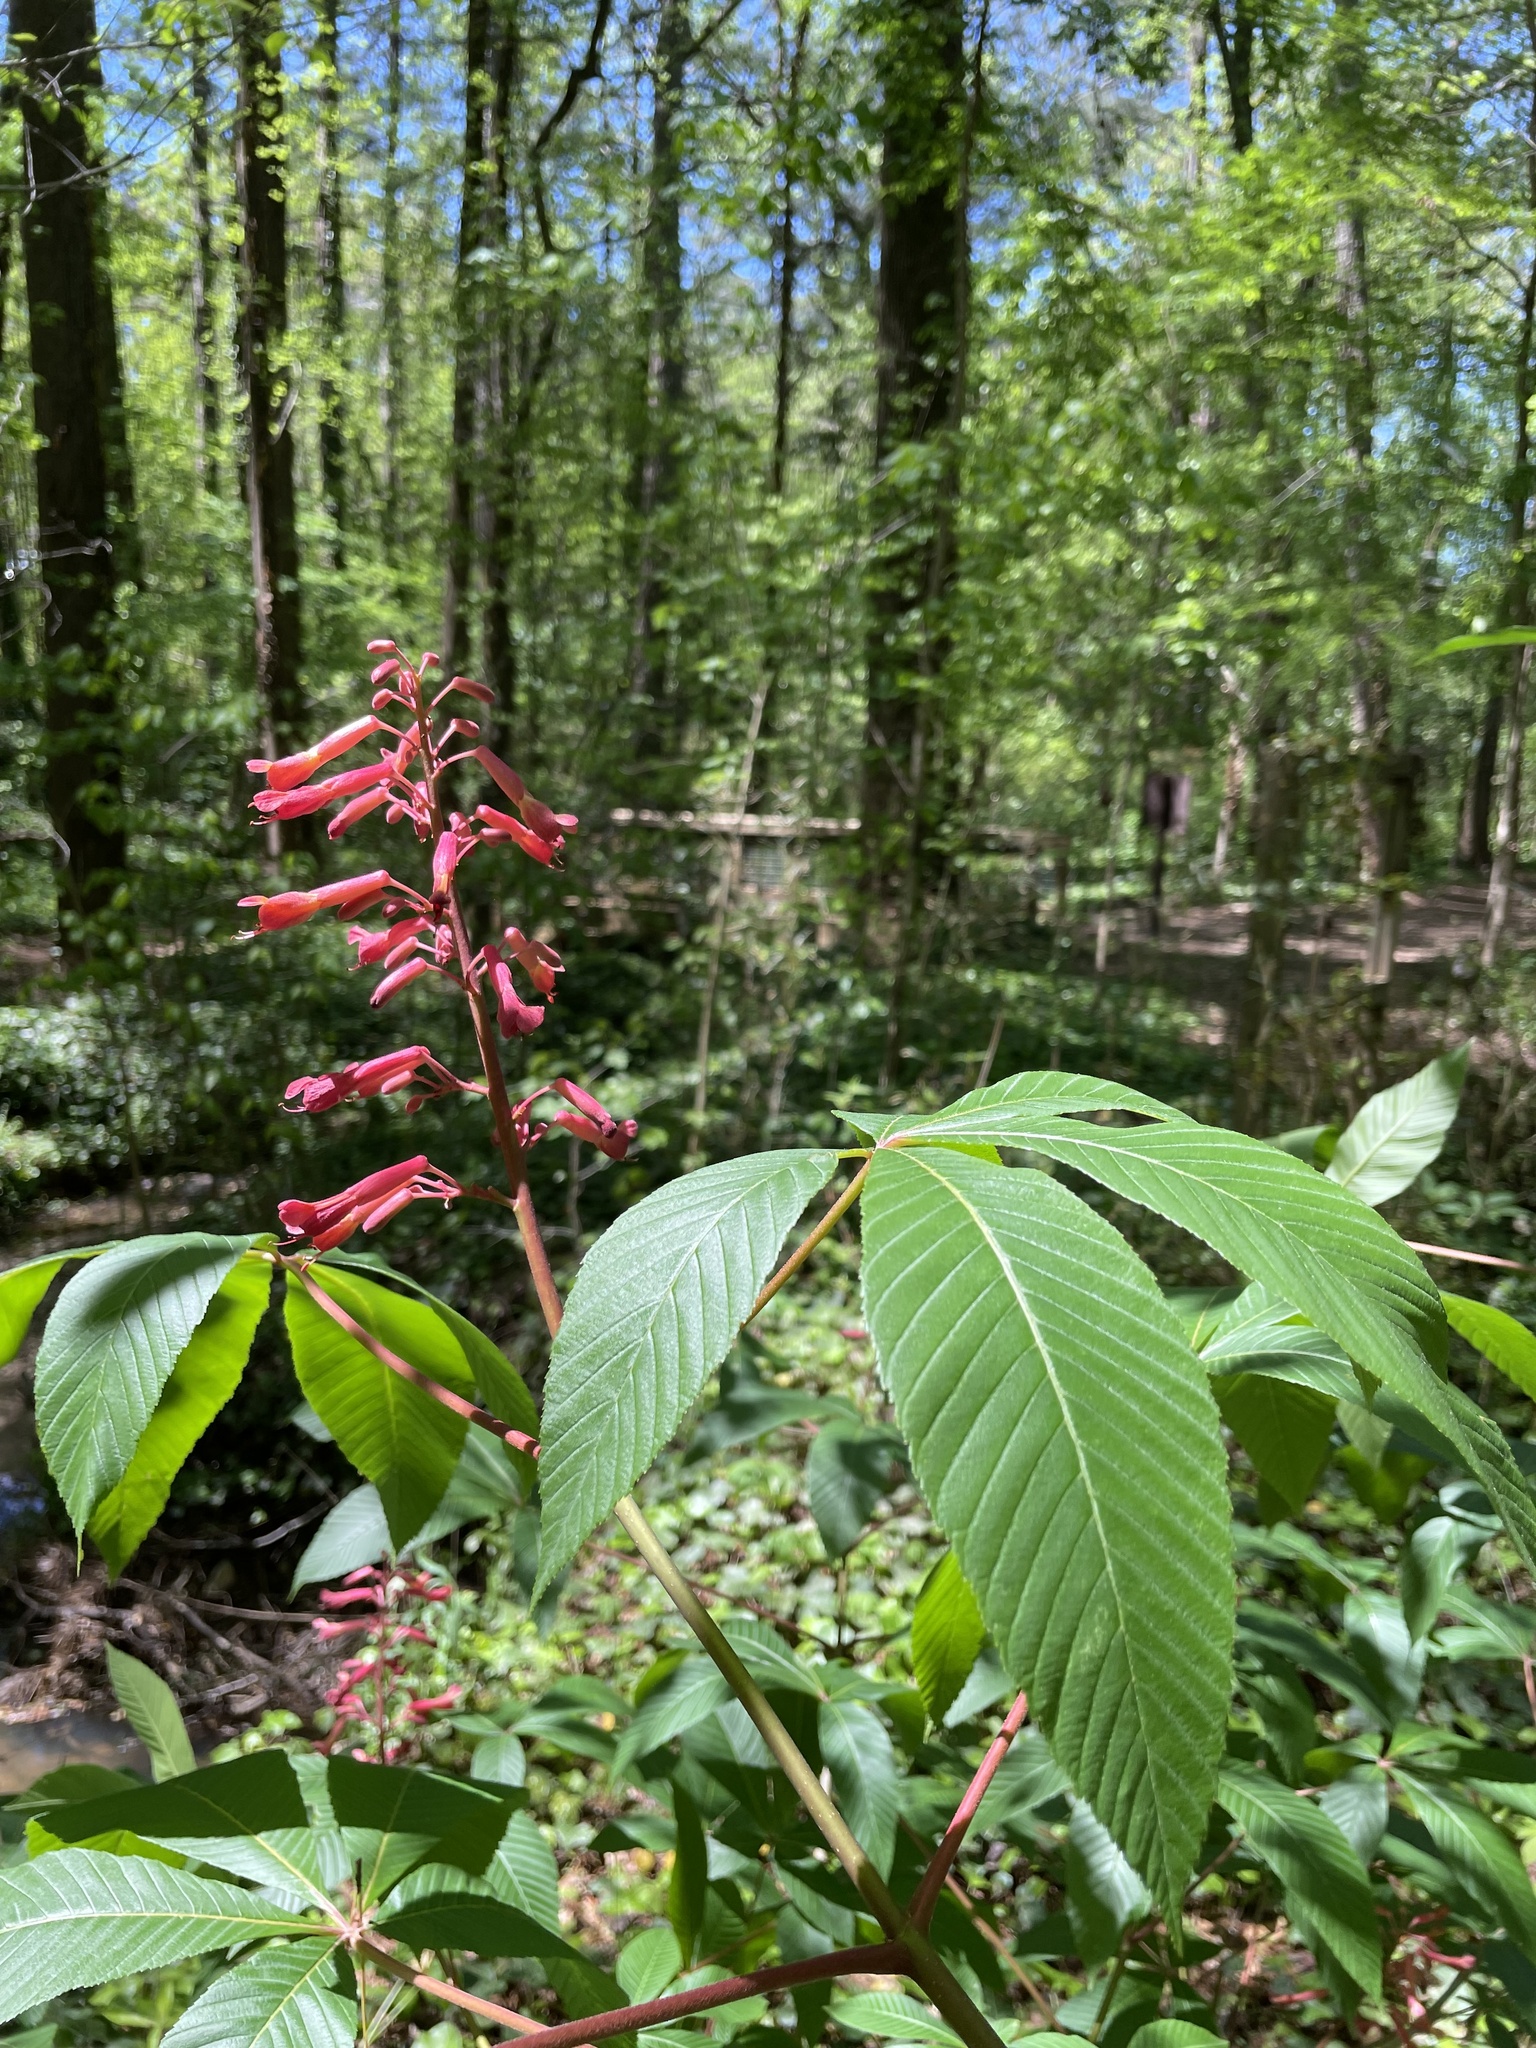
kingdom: Plantae
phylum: Tracheophyta
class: Magnoliopsida
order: Sapindales
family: Sapindaceae
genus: Aesculus
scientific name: Aesculus pavia
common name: Red buckeye
